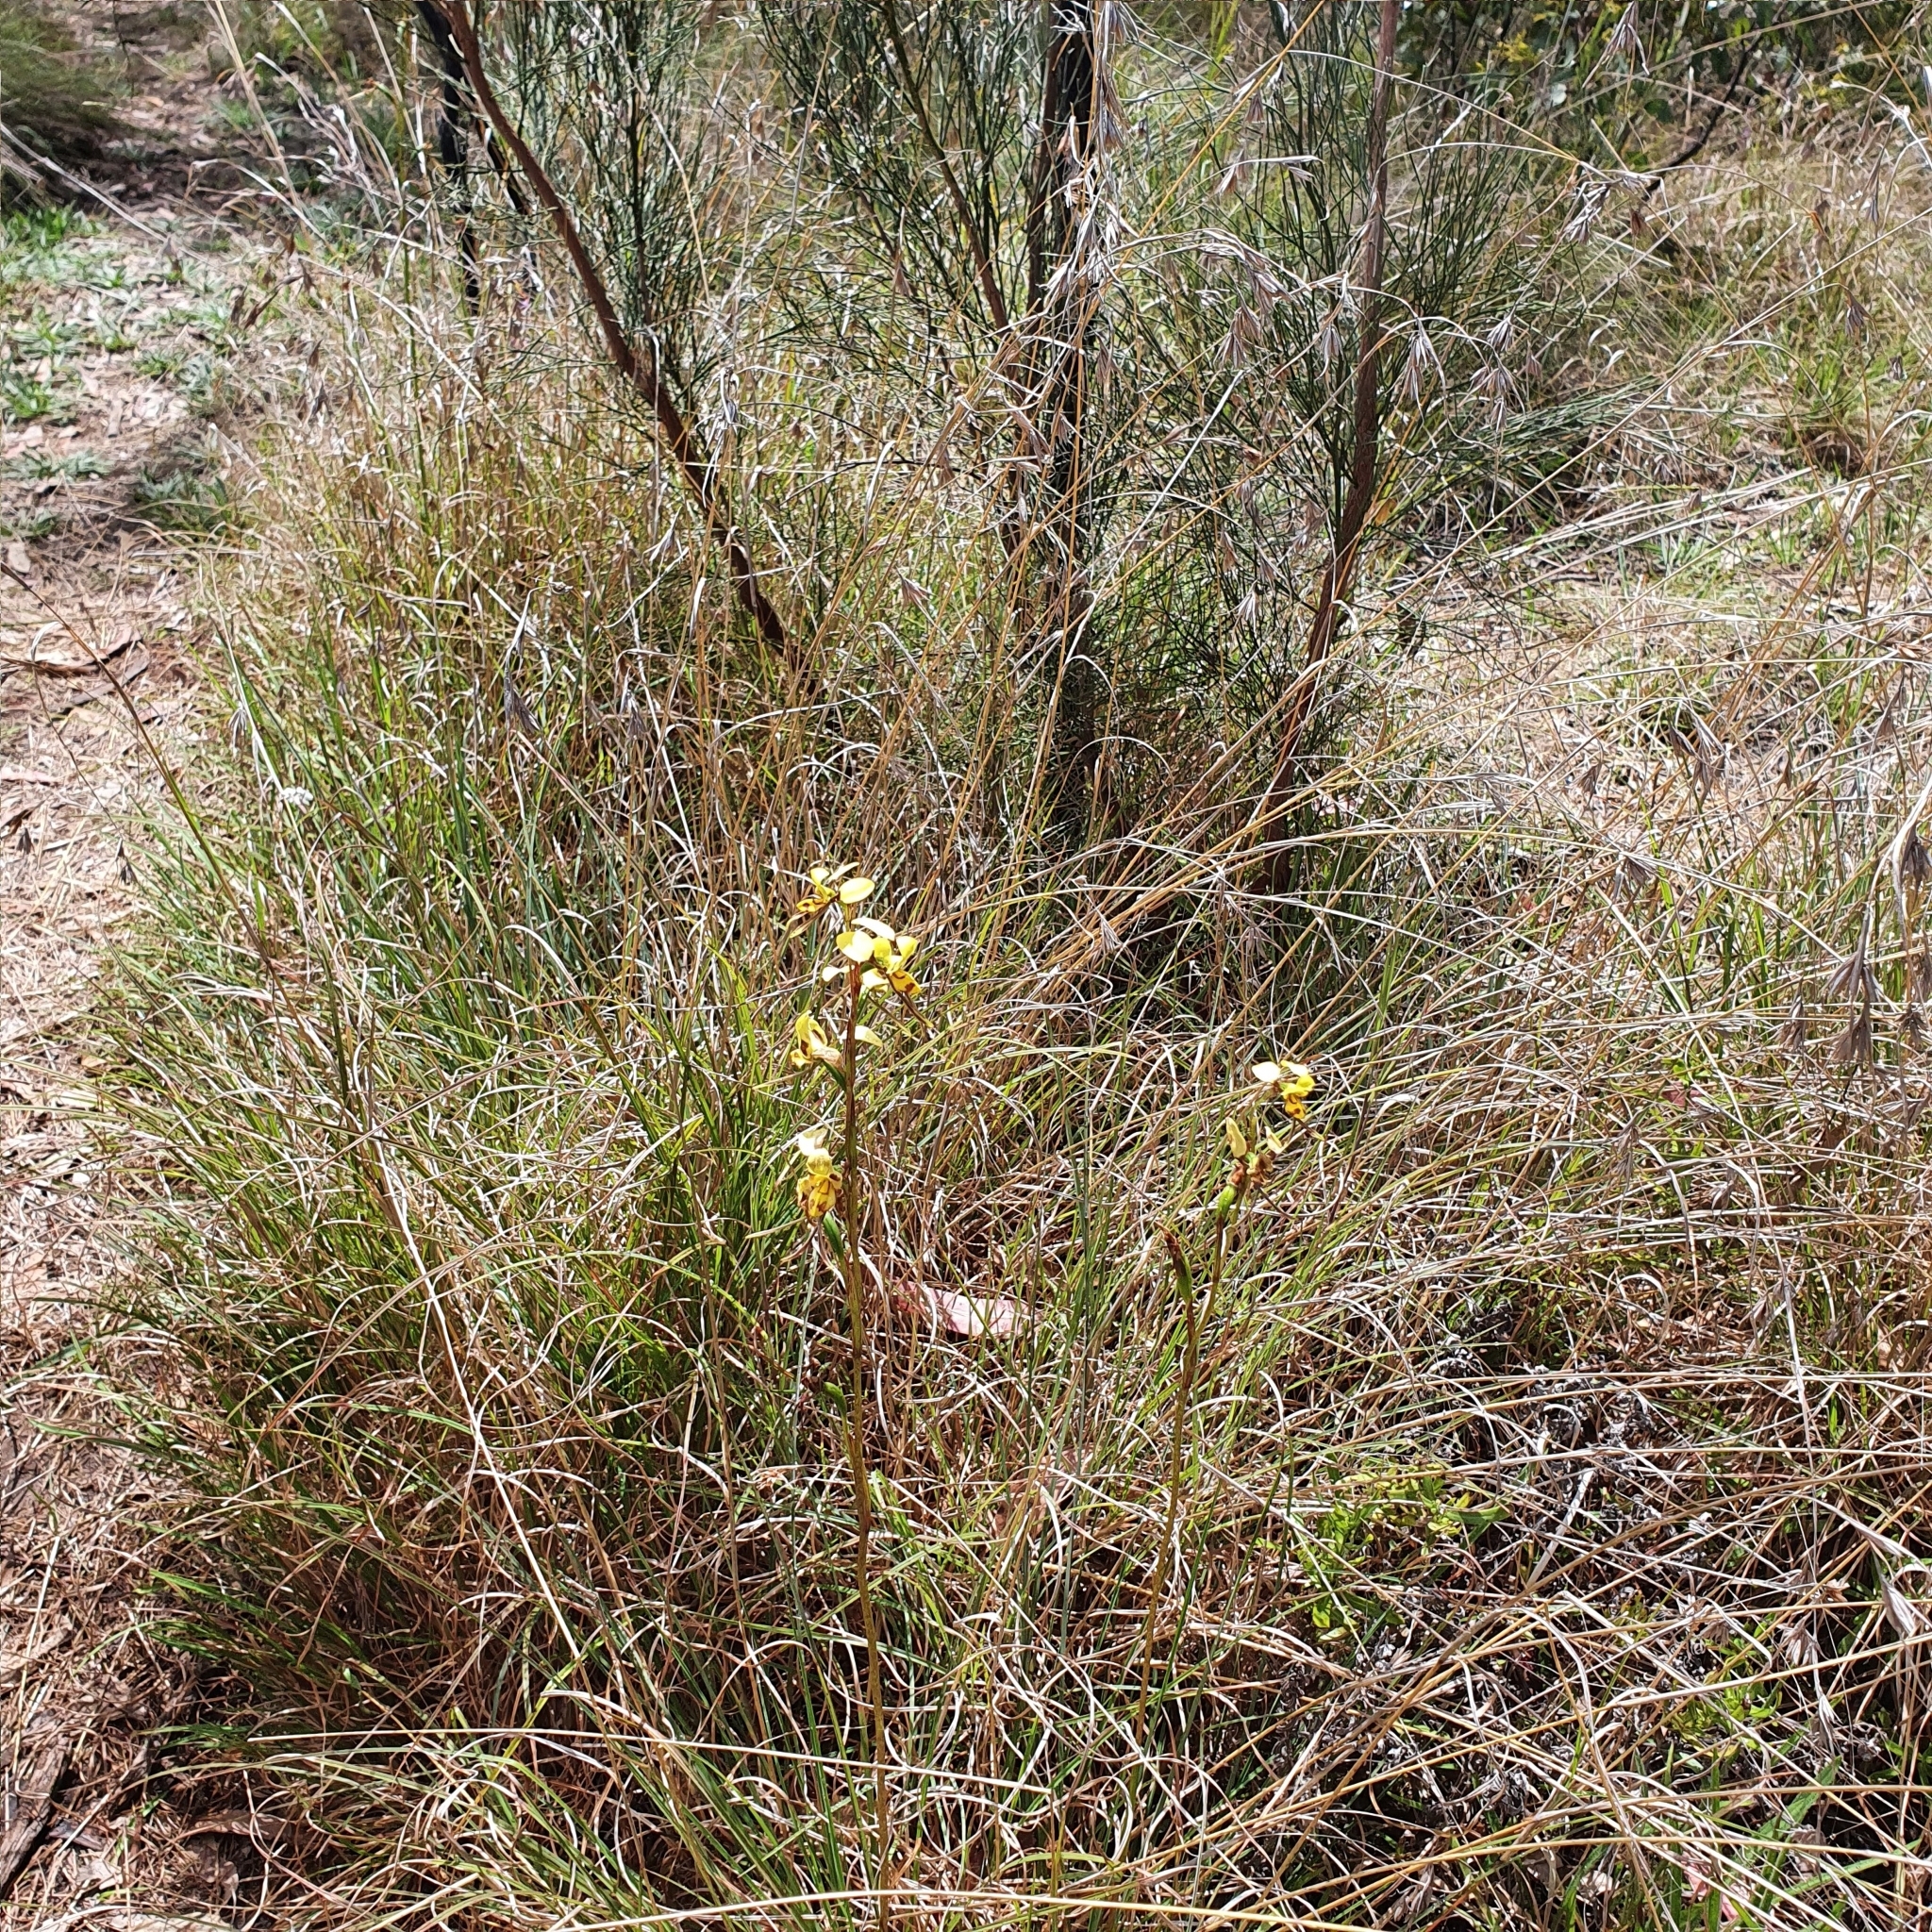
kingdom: Plantae
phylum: Tracheophyta
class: Liliopsida
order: Asparagales
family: Orchidaceae
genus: Diuris
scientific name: Diuris sulphurea
